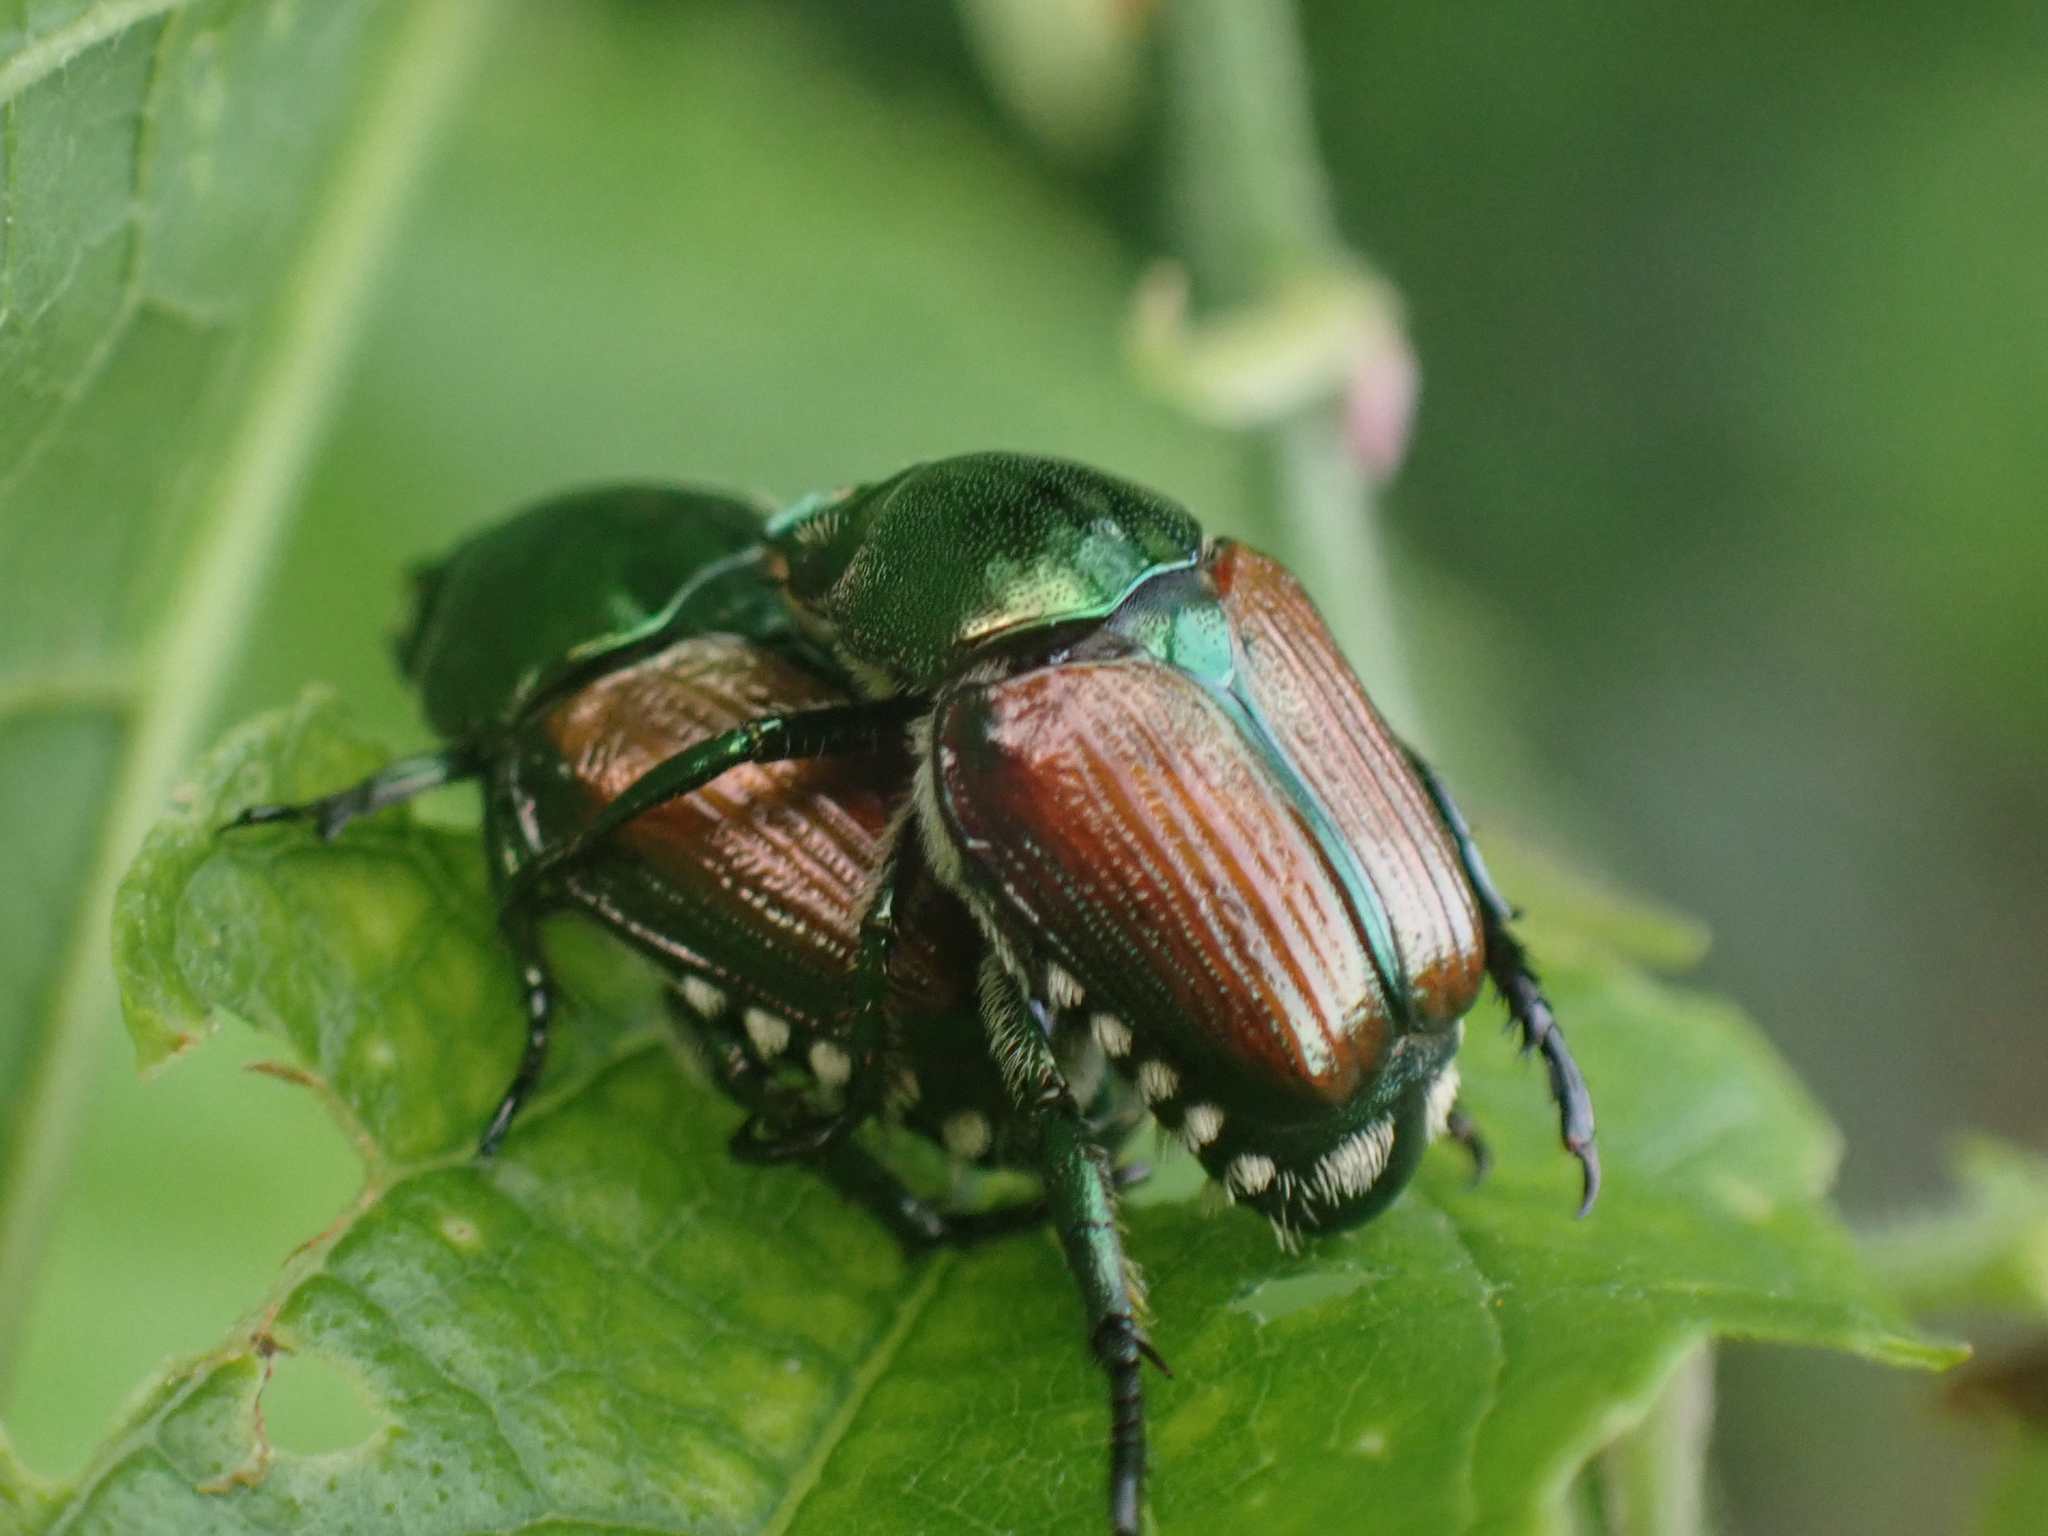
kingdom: Animalia
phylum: Arthropoda
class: Insecta
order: Coleoptera
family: Scarabaeidae
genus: Popillia
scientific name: Popillia japonica
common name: Japanese beetle
